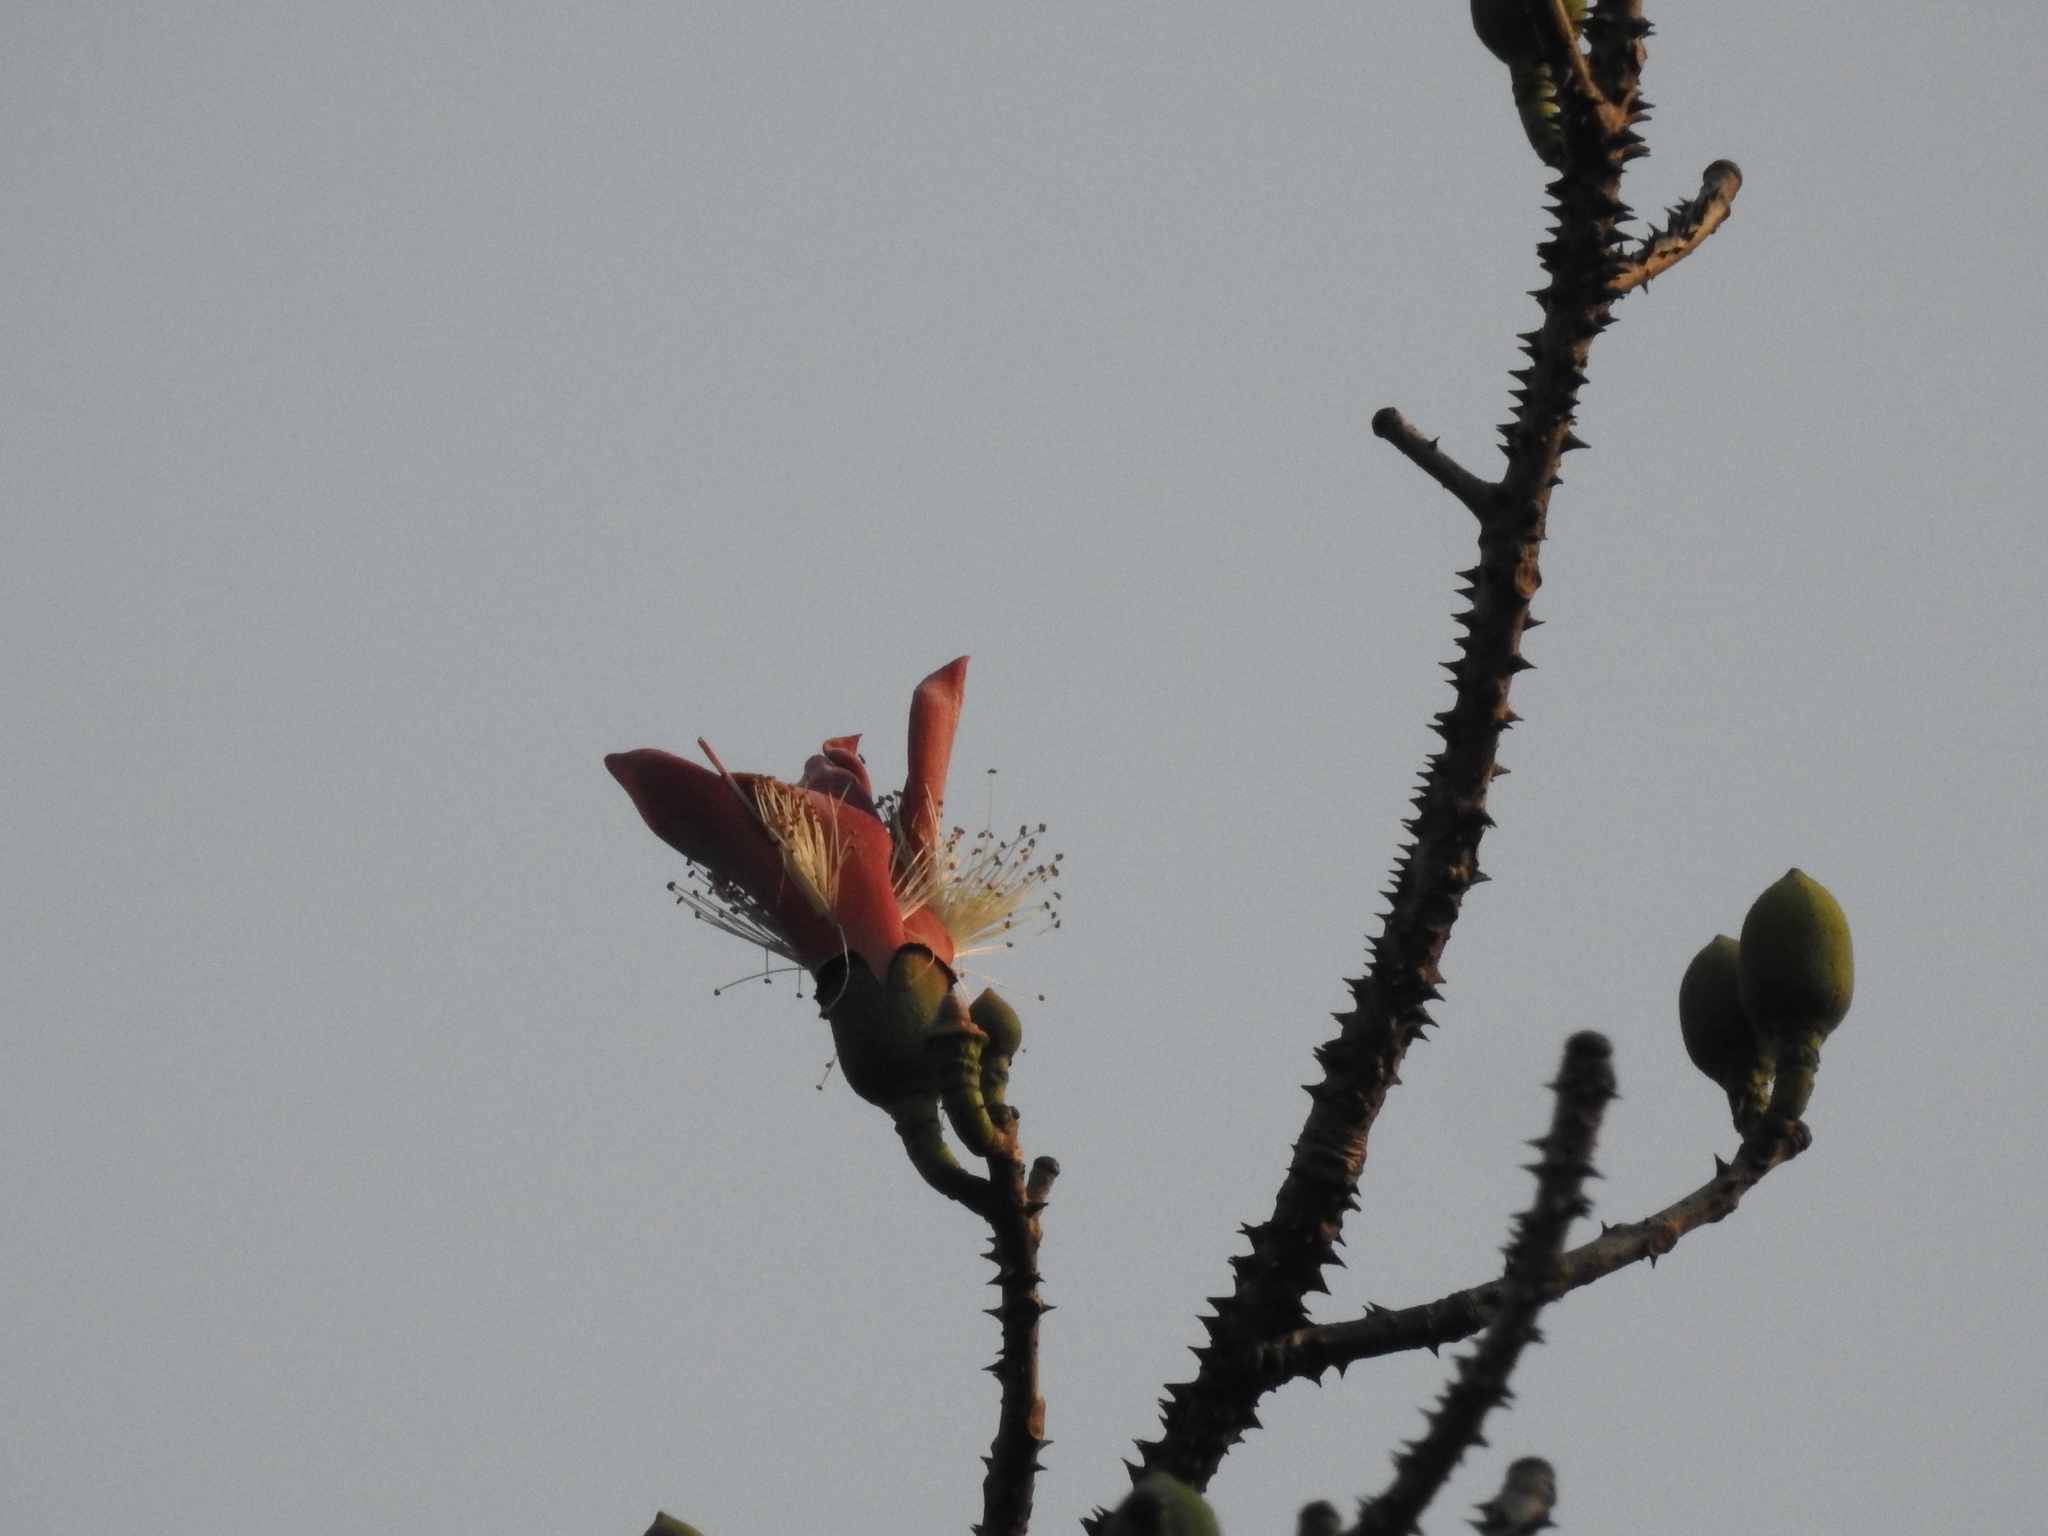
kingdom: Plantae
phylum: Tracheophyta
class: Magnoliopsida
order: Malvales
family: Malvaceae
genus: Bombax
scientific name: Bombax ceiba
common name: Northern-cottonwood
